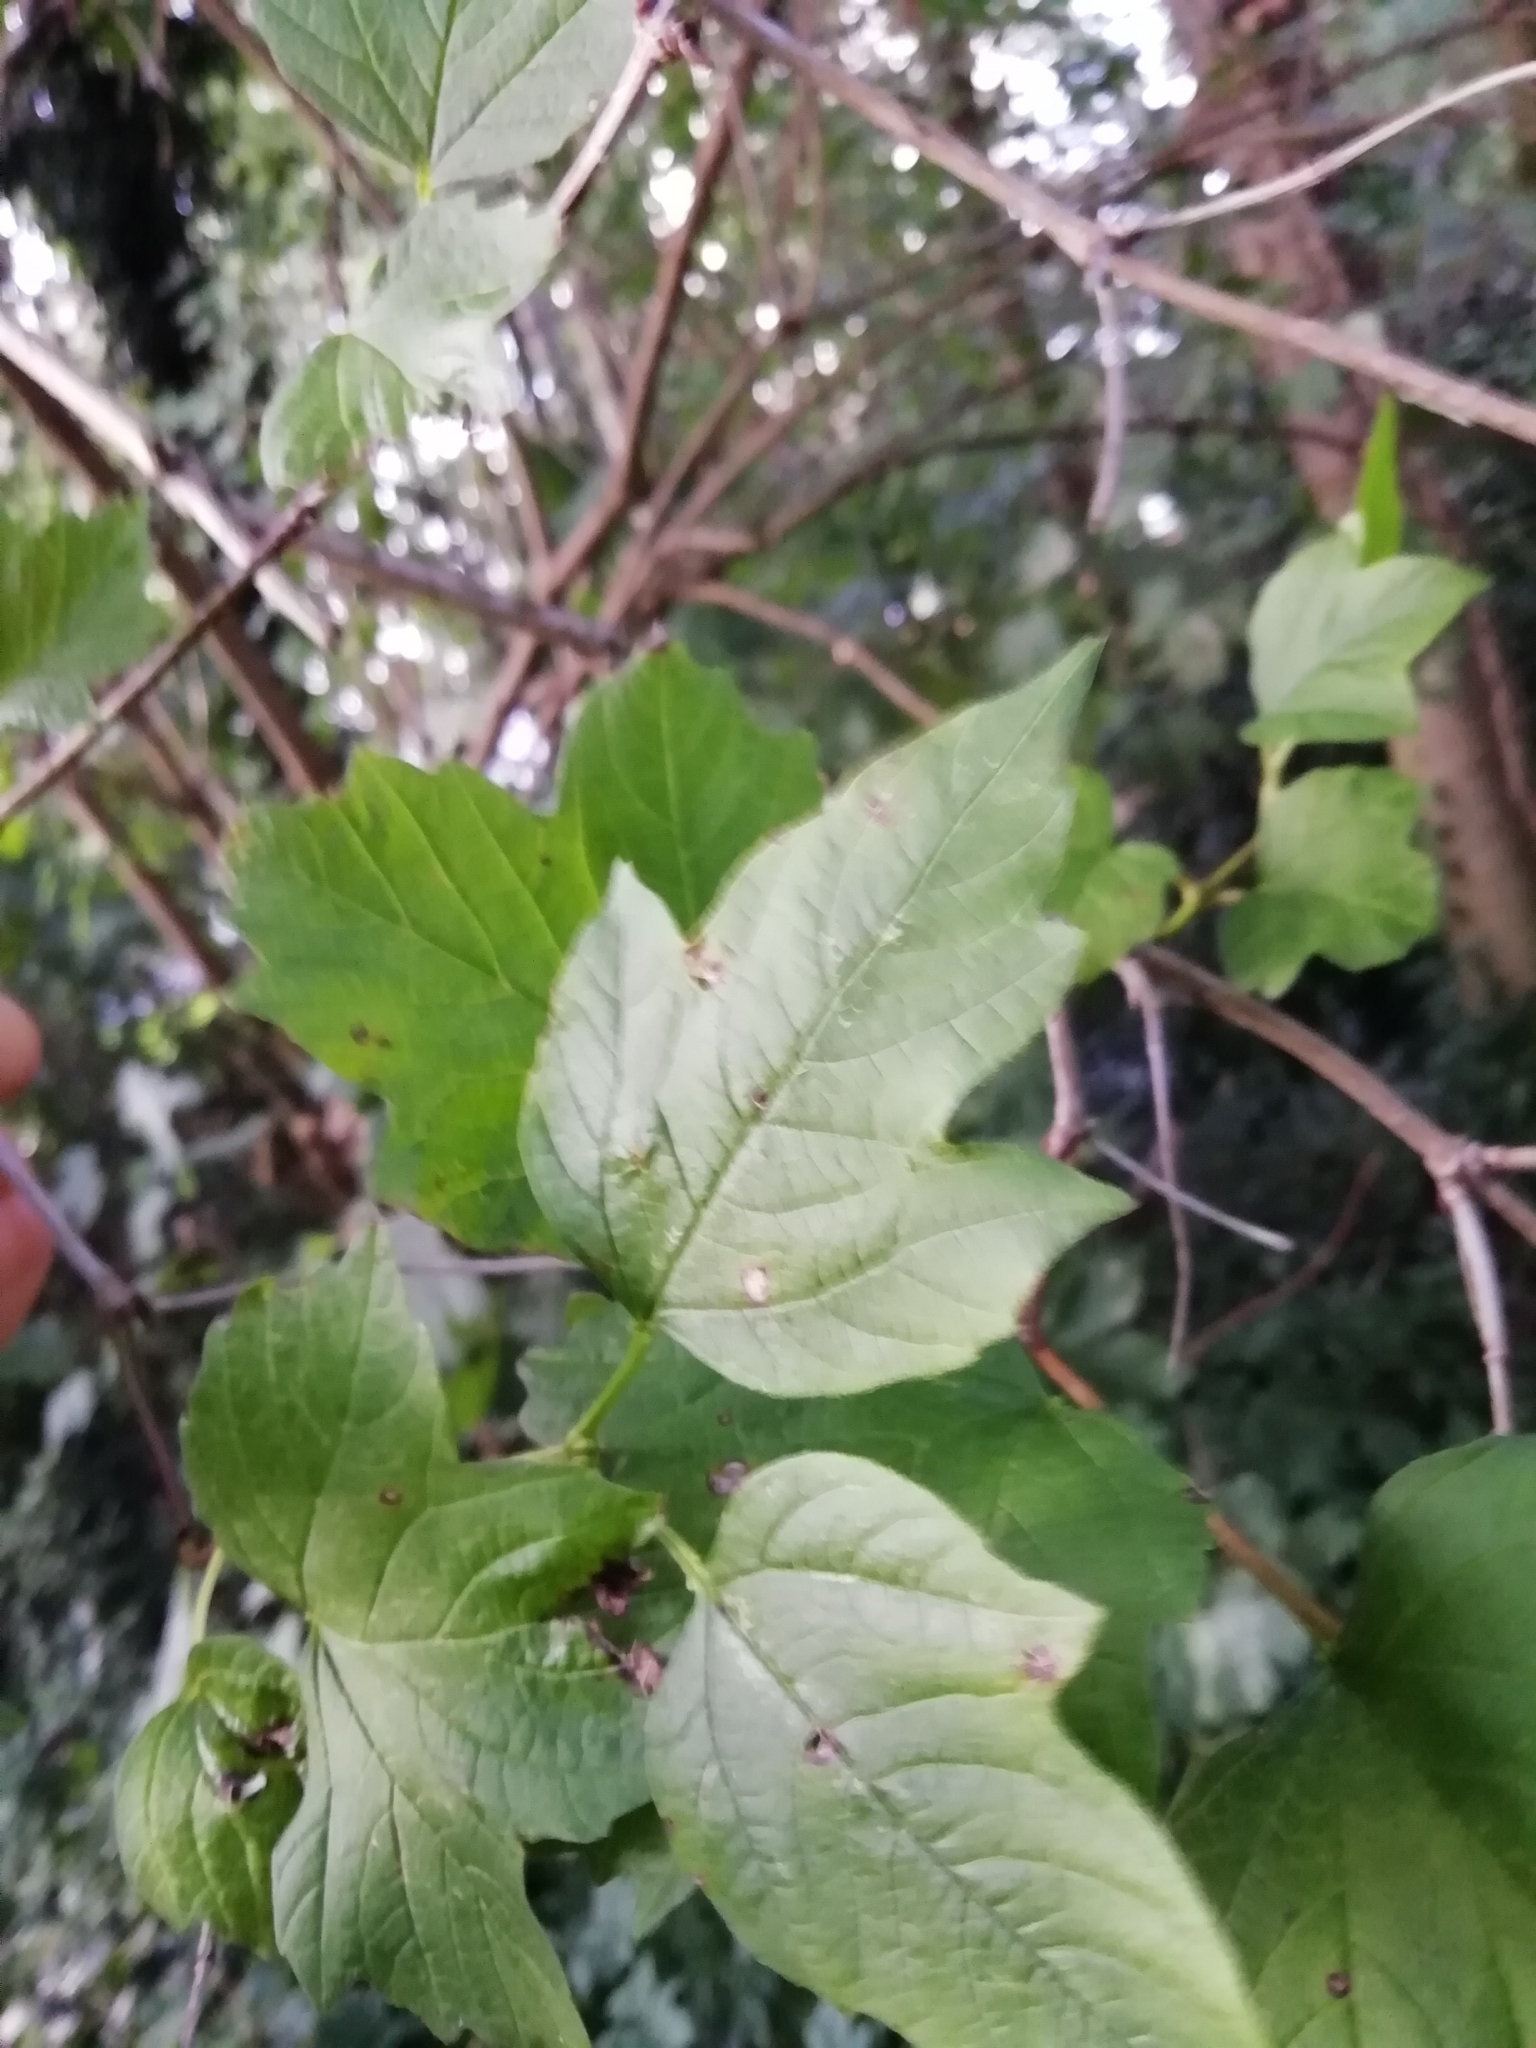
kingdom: Plantae
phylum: Tracheophyta
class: Magnoliopsida
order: Dipsacales
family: Viburnaceae
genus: Viburnum
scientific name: Viburnum opulus
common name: Guelder-rose
